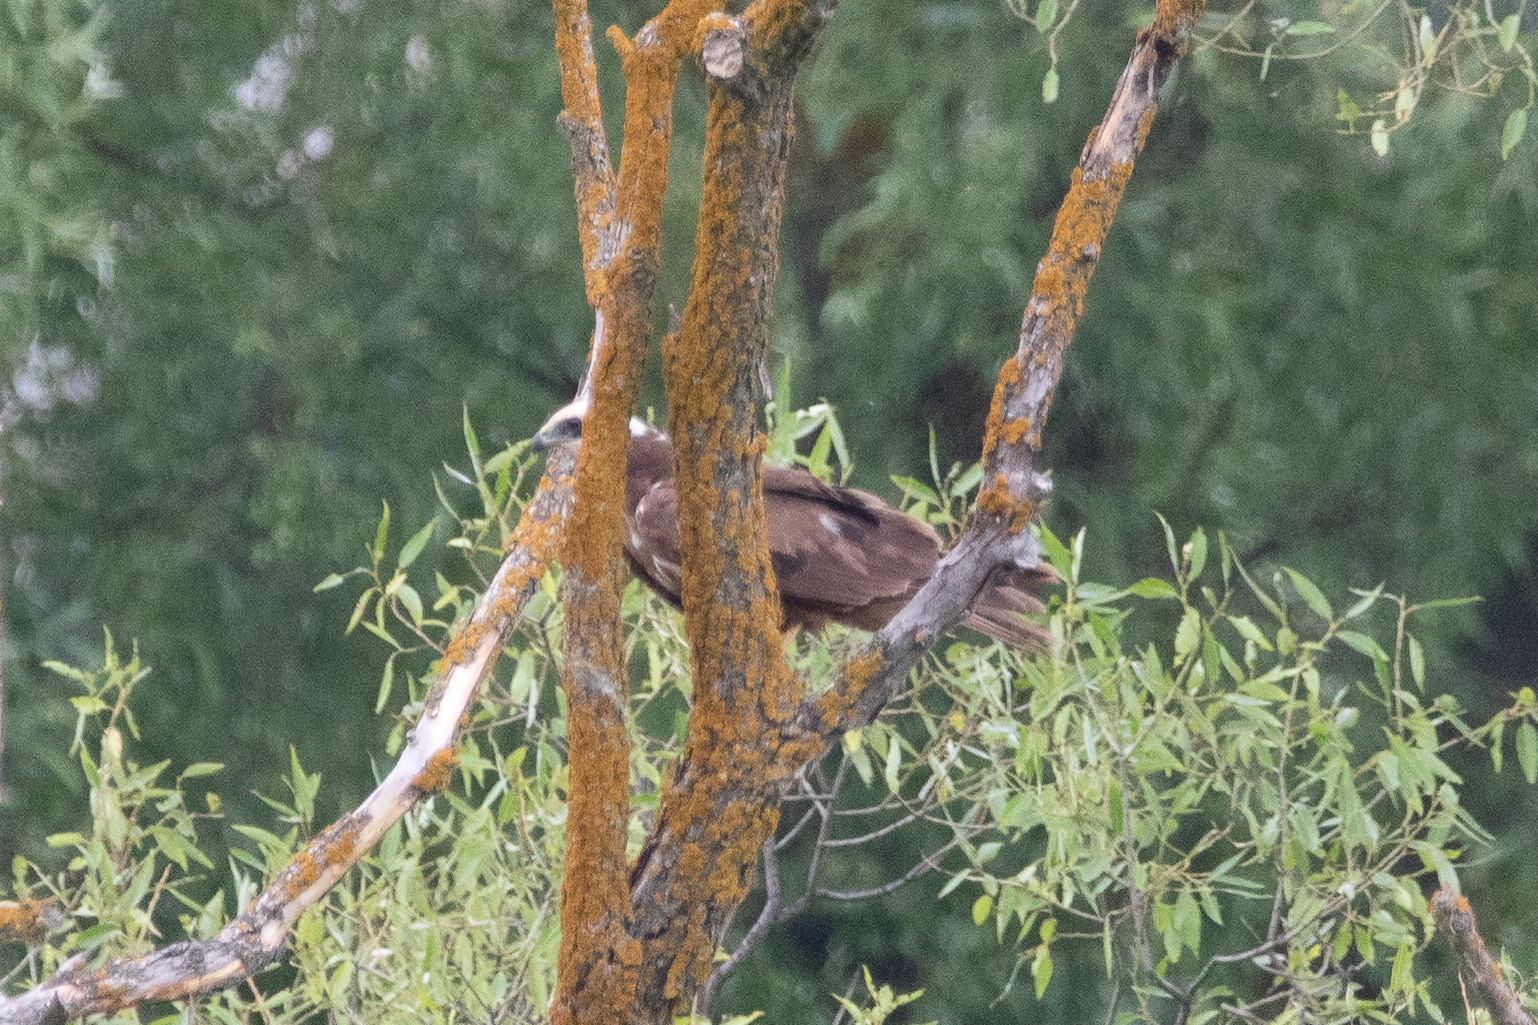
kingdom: Animalia
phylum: Chordata
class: Aves
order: Accipitriformes
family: Accipitridae
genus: Circus
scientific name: Circus aeruginosus
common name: Western marsh harrier
